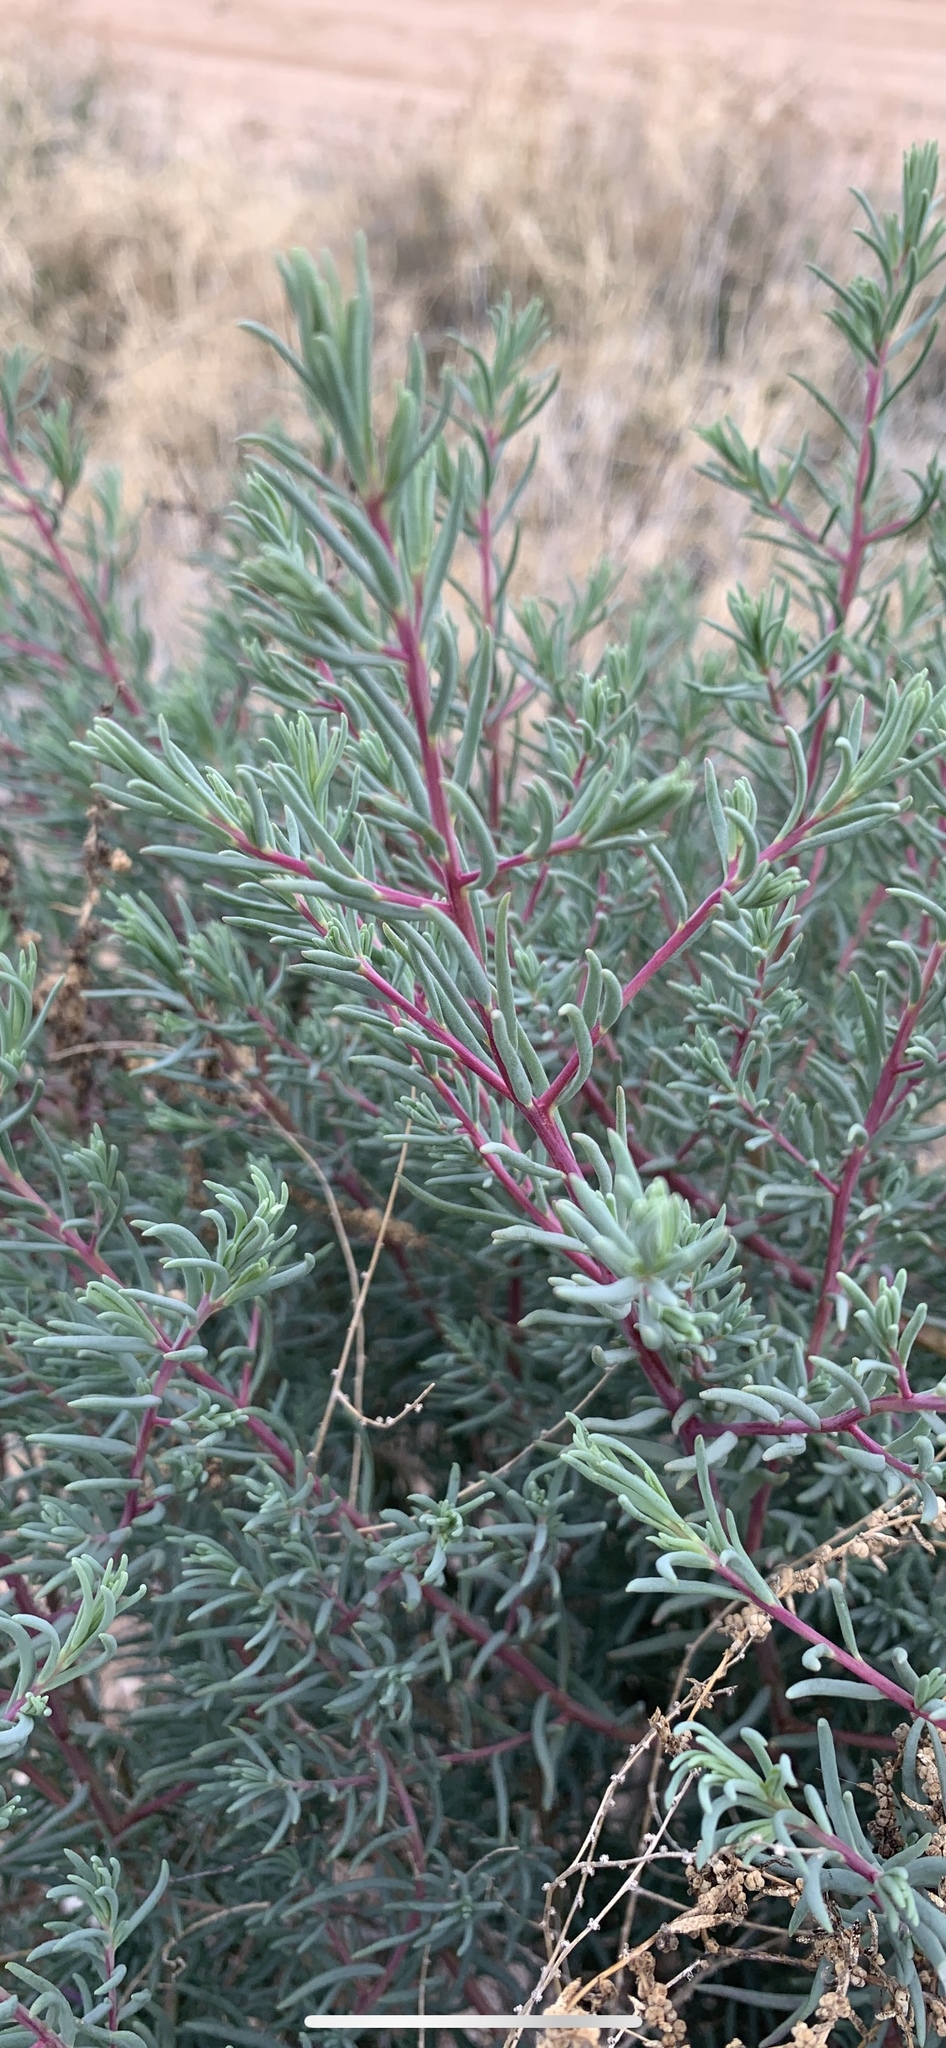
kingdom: Plantae
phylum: Tracheophyta
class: Magnoliopsida
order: Caryophyllales
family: Amaranthaceae
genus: Suaeda
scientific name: Suaeda nigra
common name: Bush seepweed
